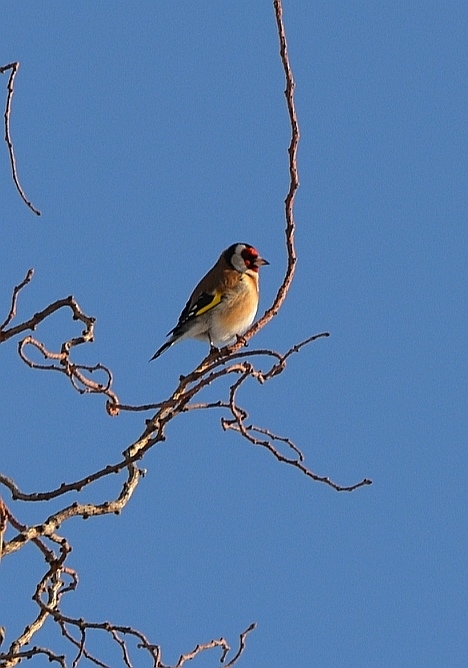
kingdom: Animalia
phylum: Chordata
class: Aves
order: Passeriformes
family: Fringillidae
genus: Carduelis
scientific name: Carduelis carduelis
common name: European goldfinch
